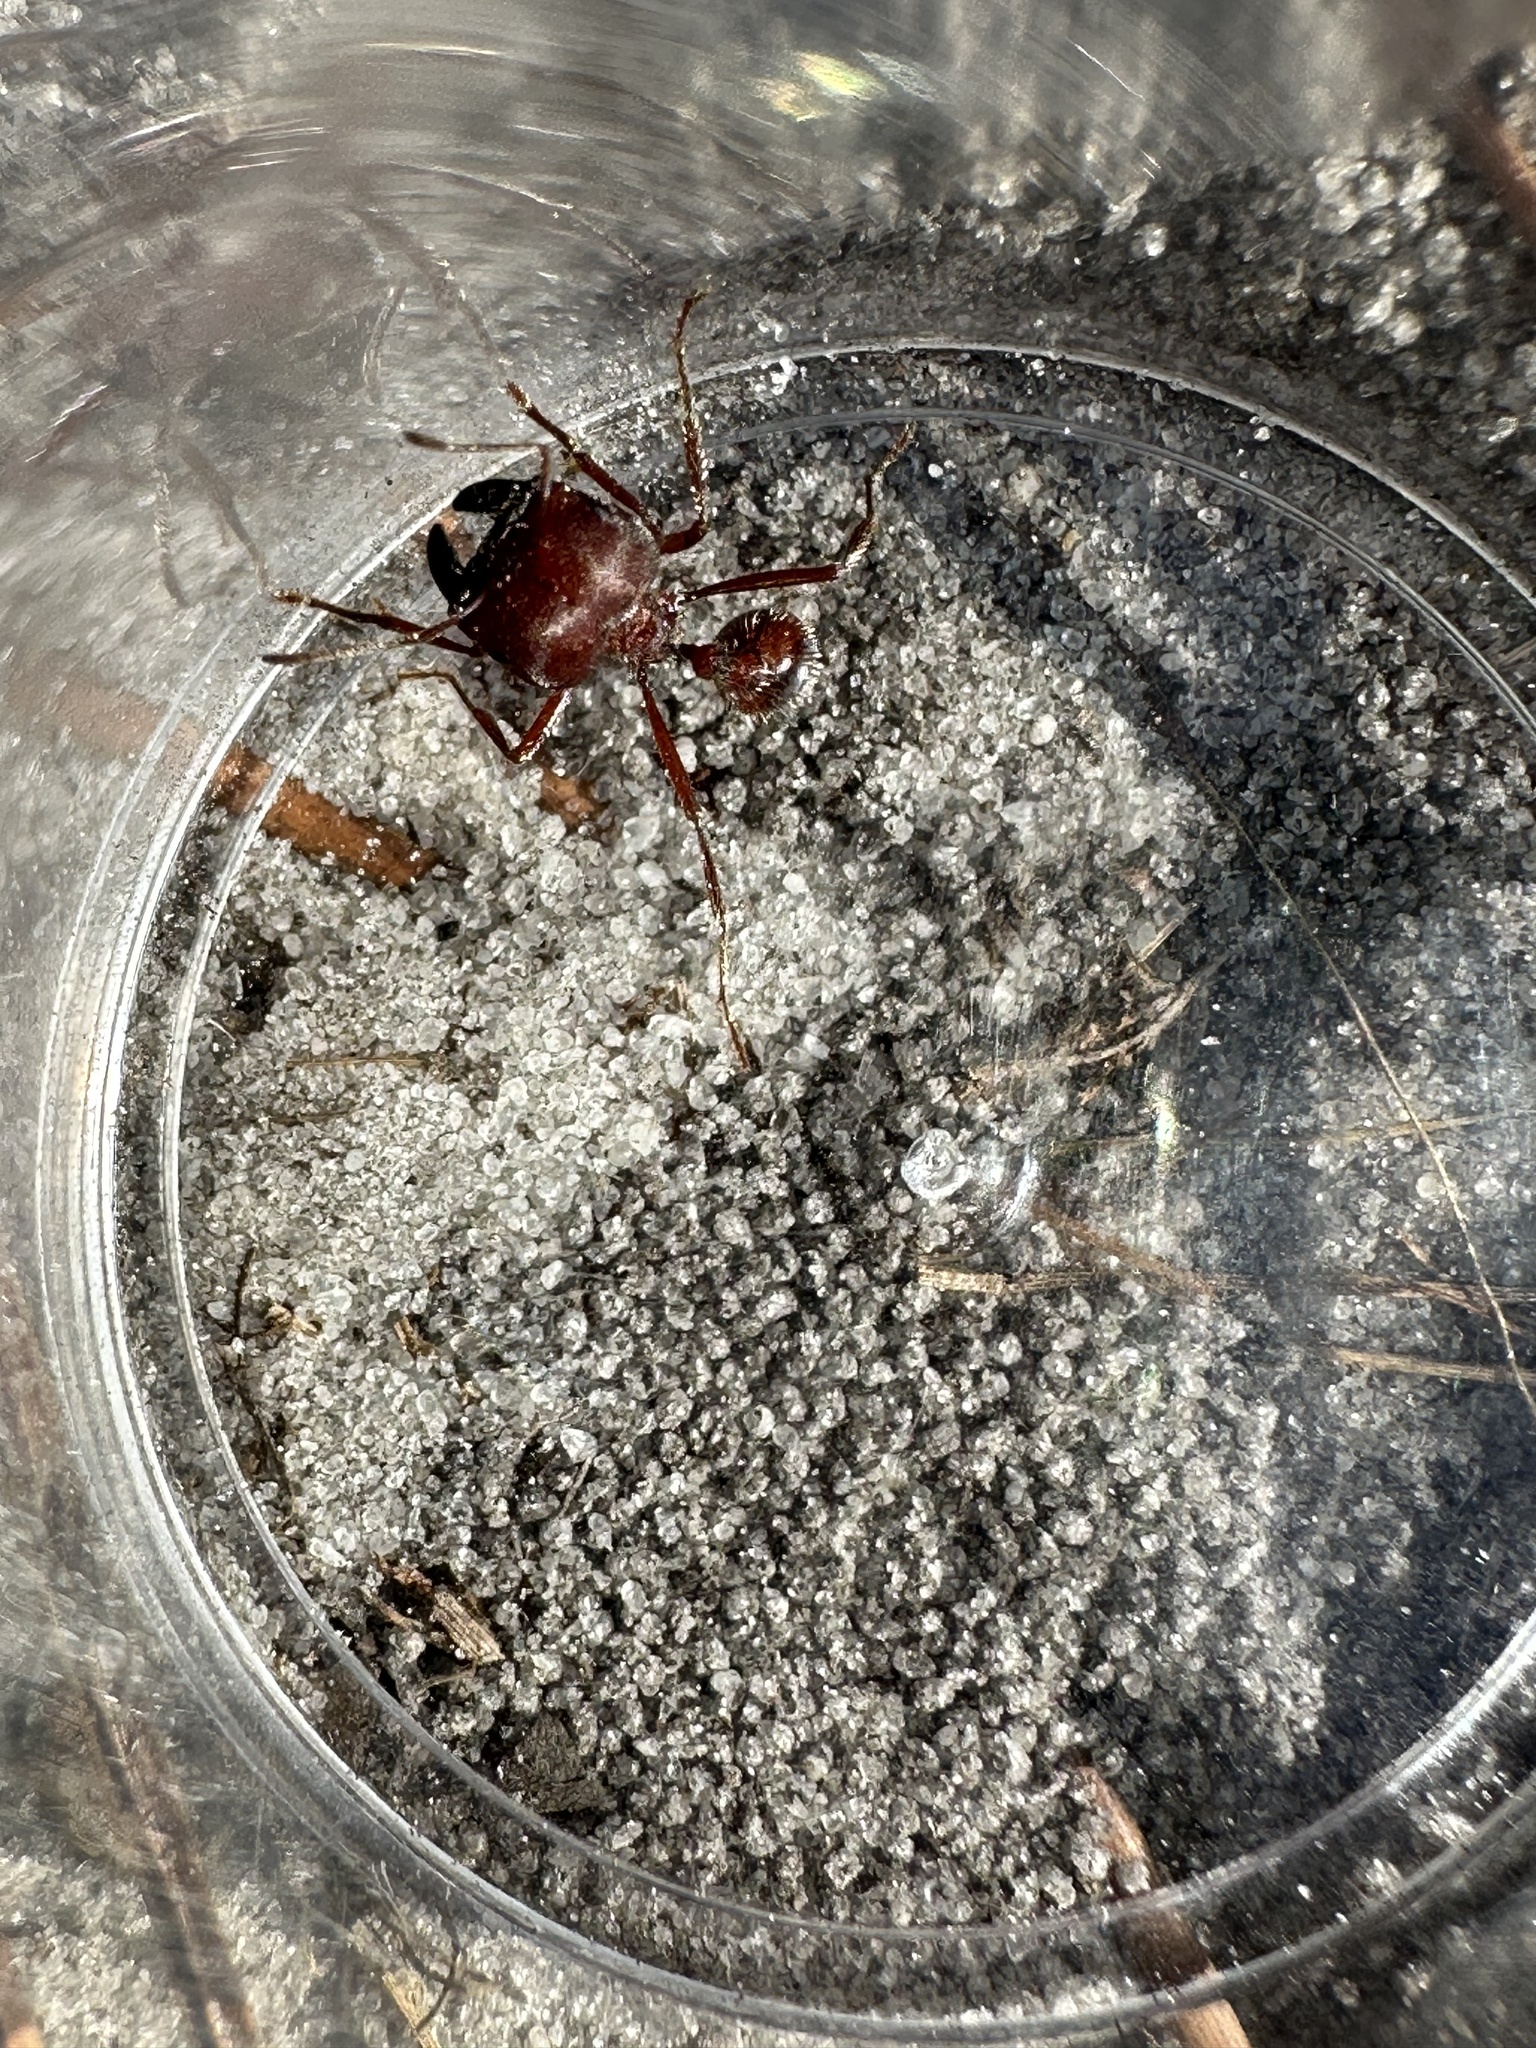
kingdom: Animalia
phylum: Arthropoda
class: Insecta
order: Hymenoptera
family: Formicidae
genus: Pogonomyrmex
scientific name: Pogonomyrmex badius
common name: Florida harvester ant
